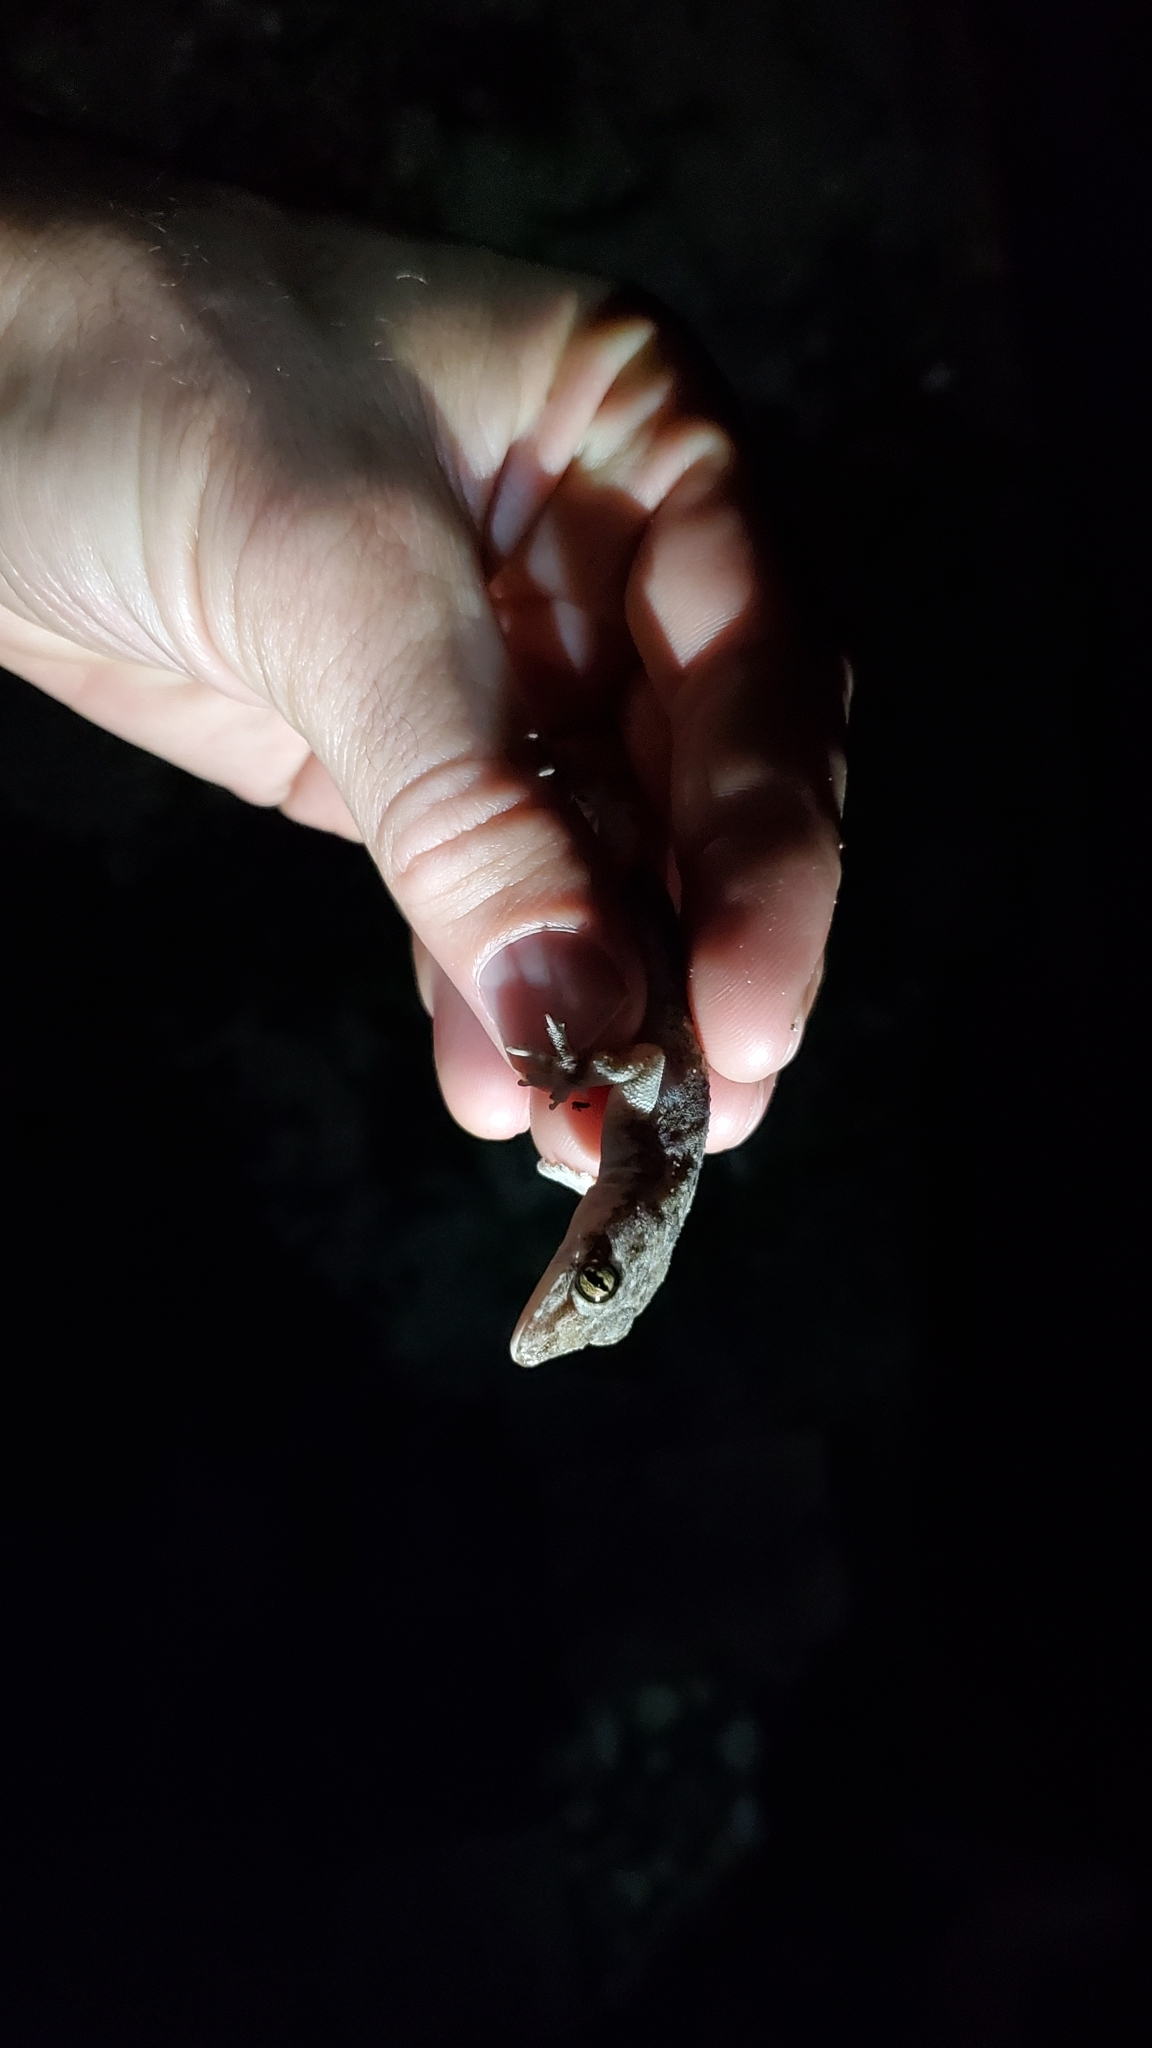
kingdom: Animalia
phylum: Chordata
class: Squamata
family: Gekkonidae
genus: Hemidactylus
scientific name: Hemidactylus mabouia
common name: House gecko
